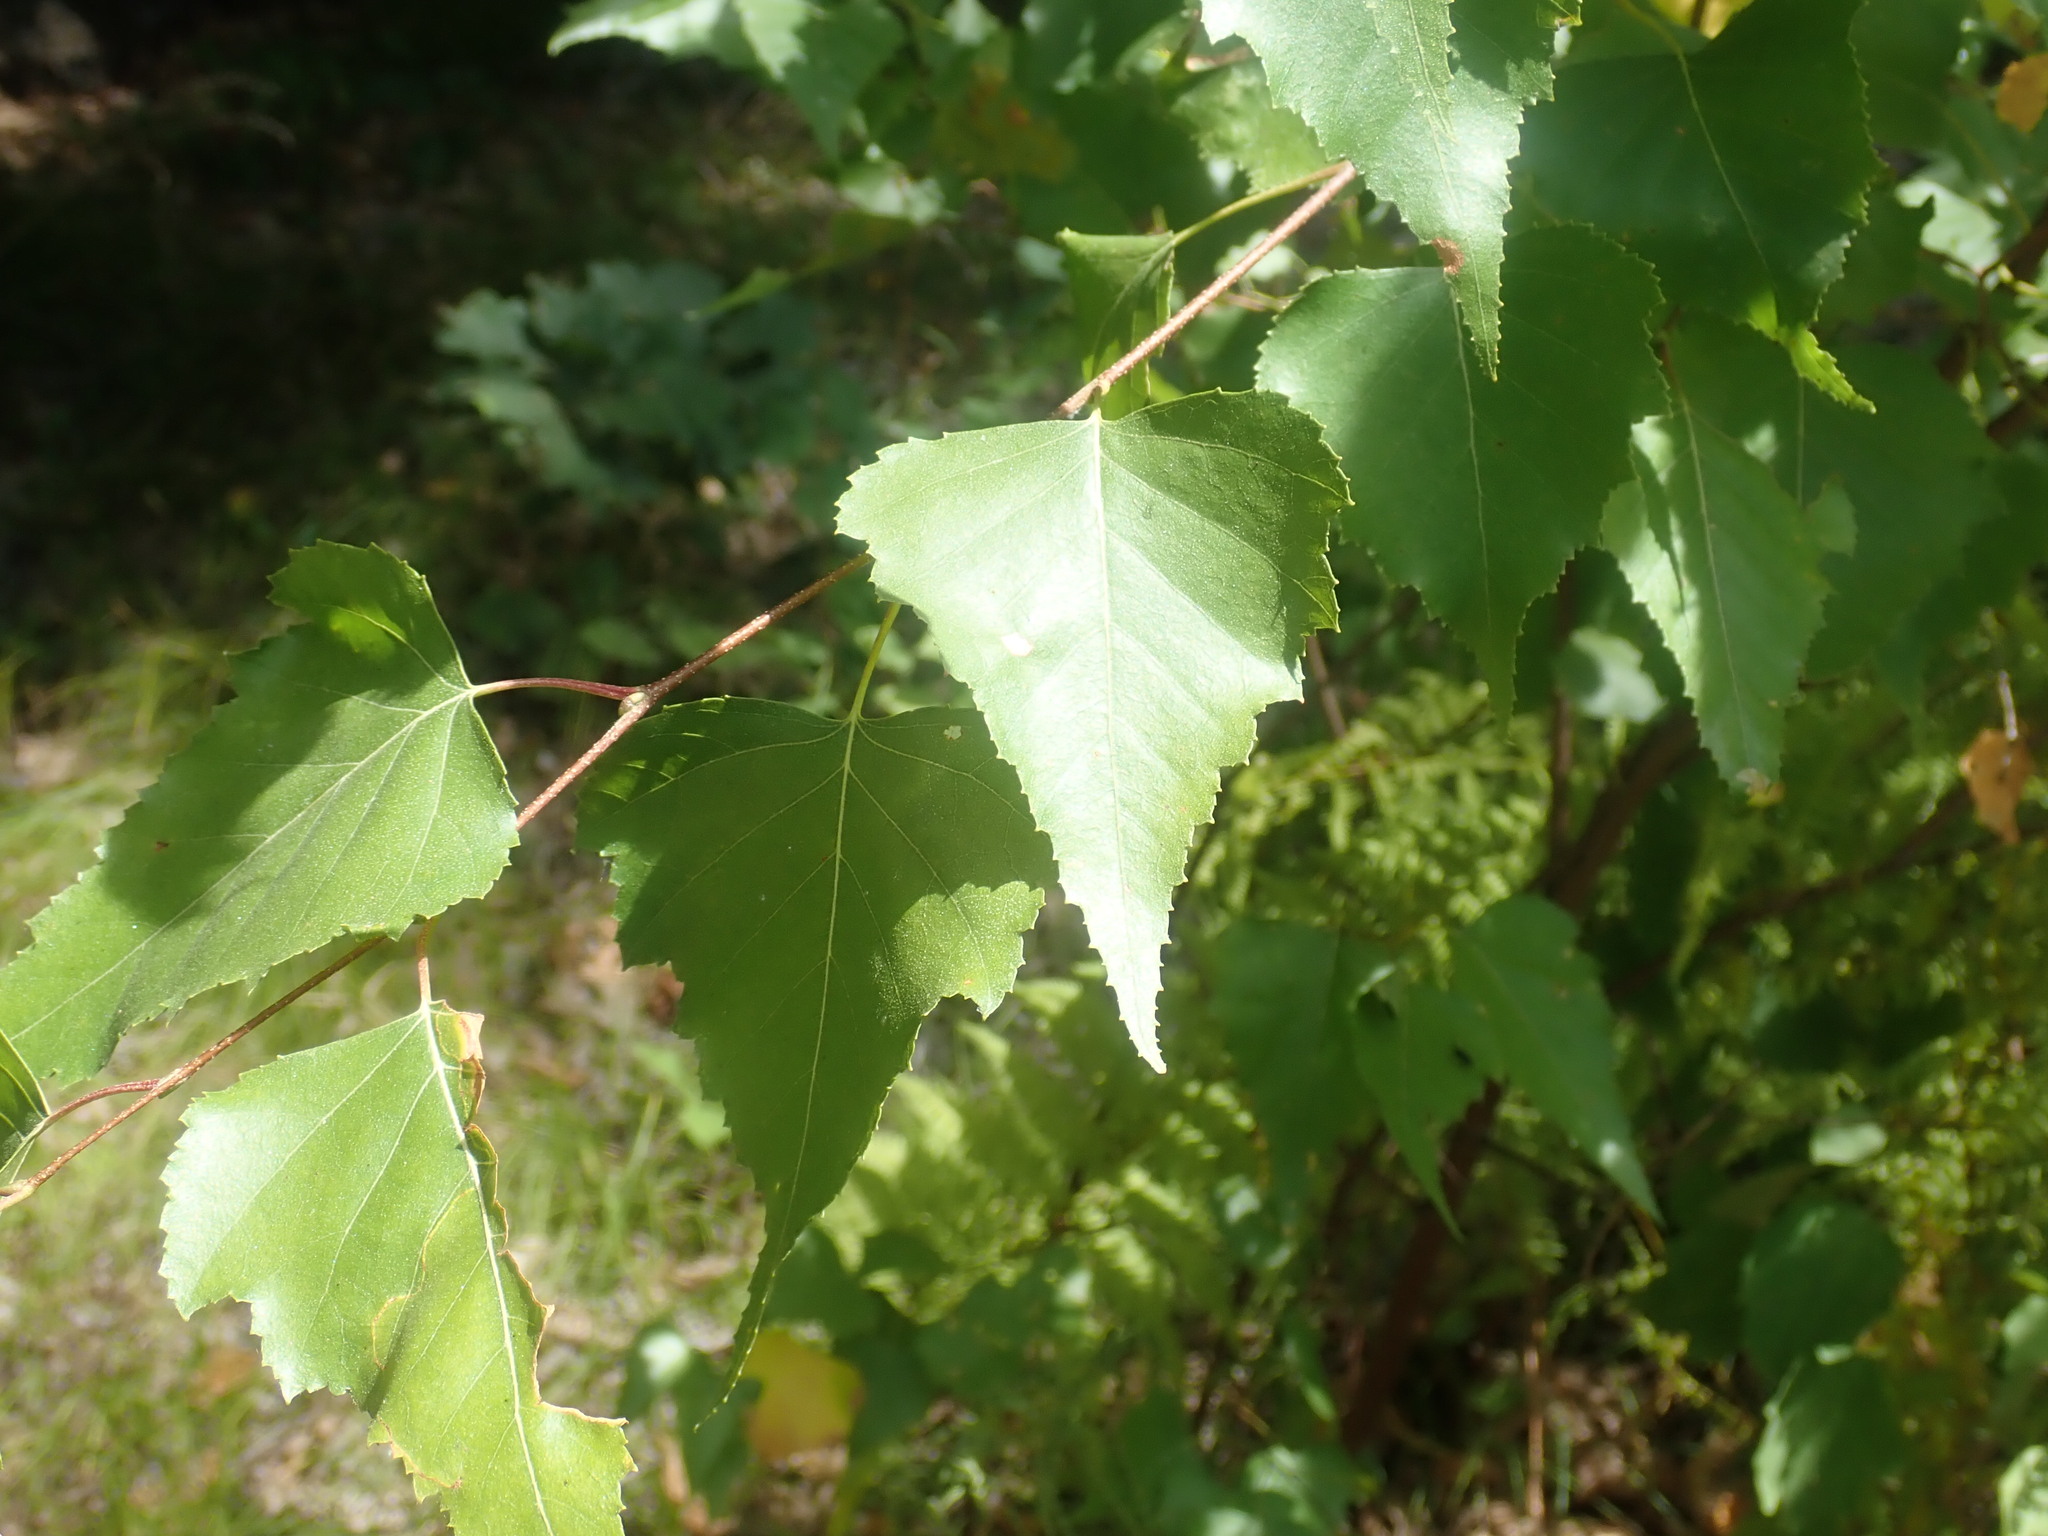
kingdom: Plantae
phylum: Tracheophyta
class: Magnoliopsida
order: Fagales
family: Betulaceae
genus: Betula
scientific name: Betula populifolia
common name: Fire birch
